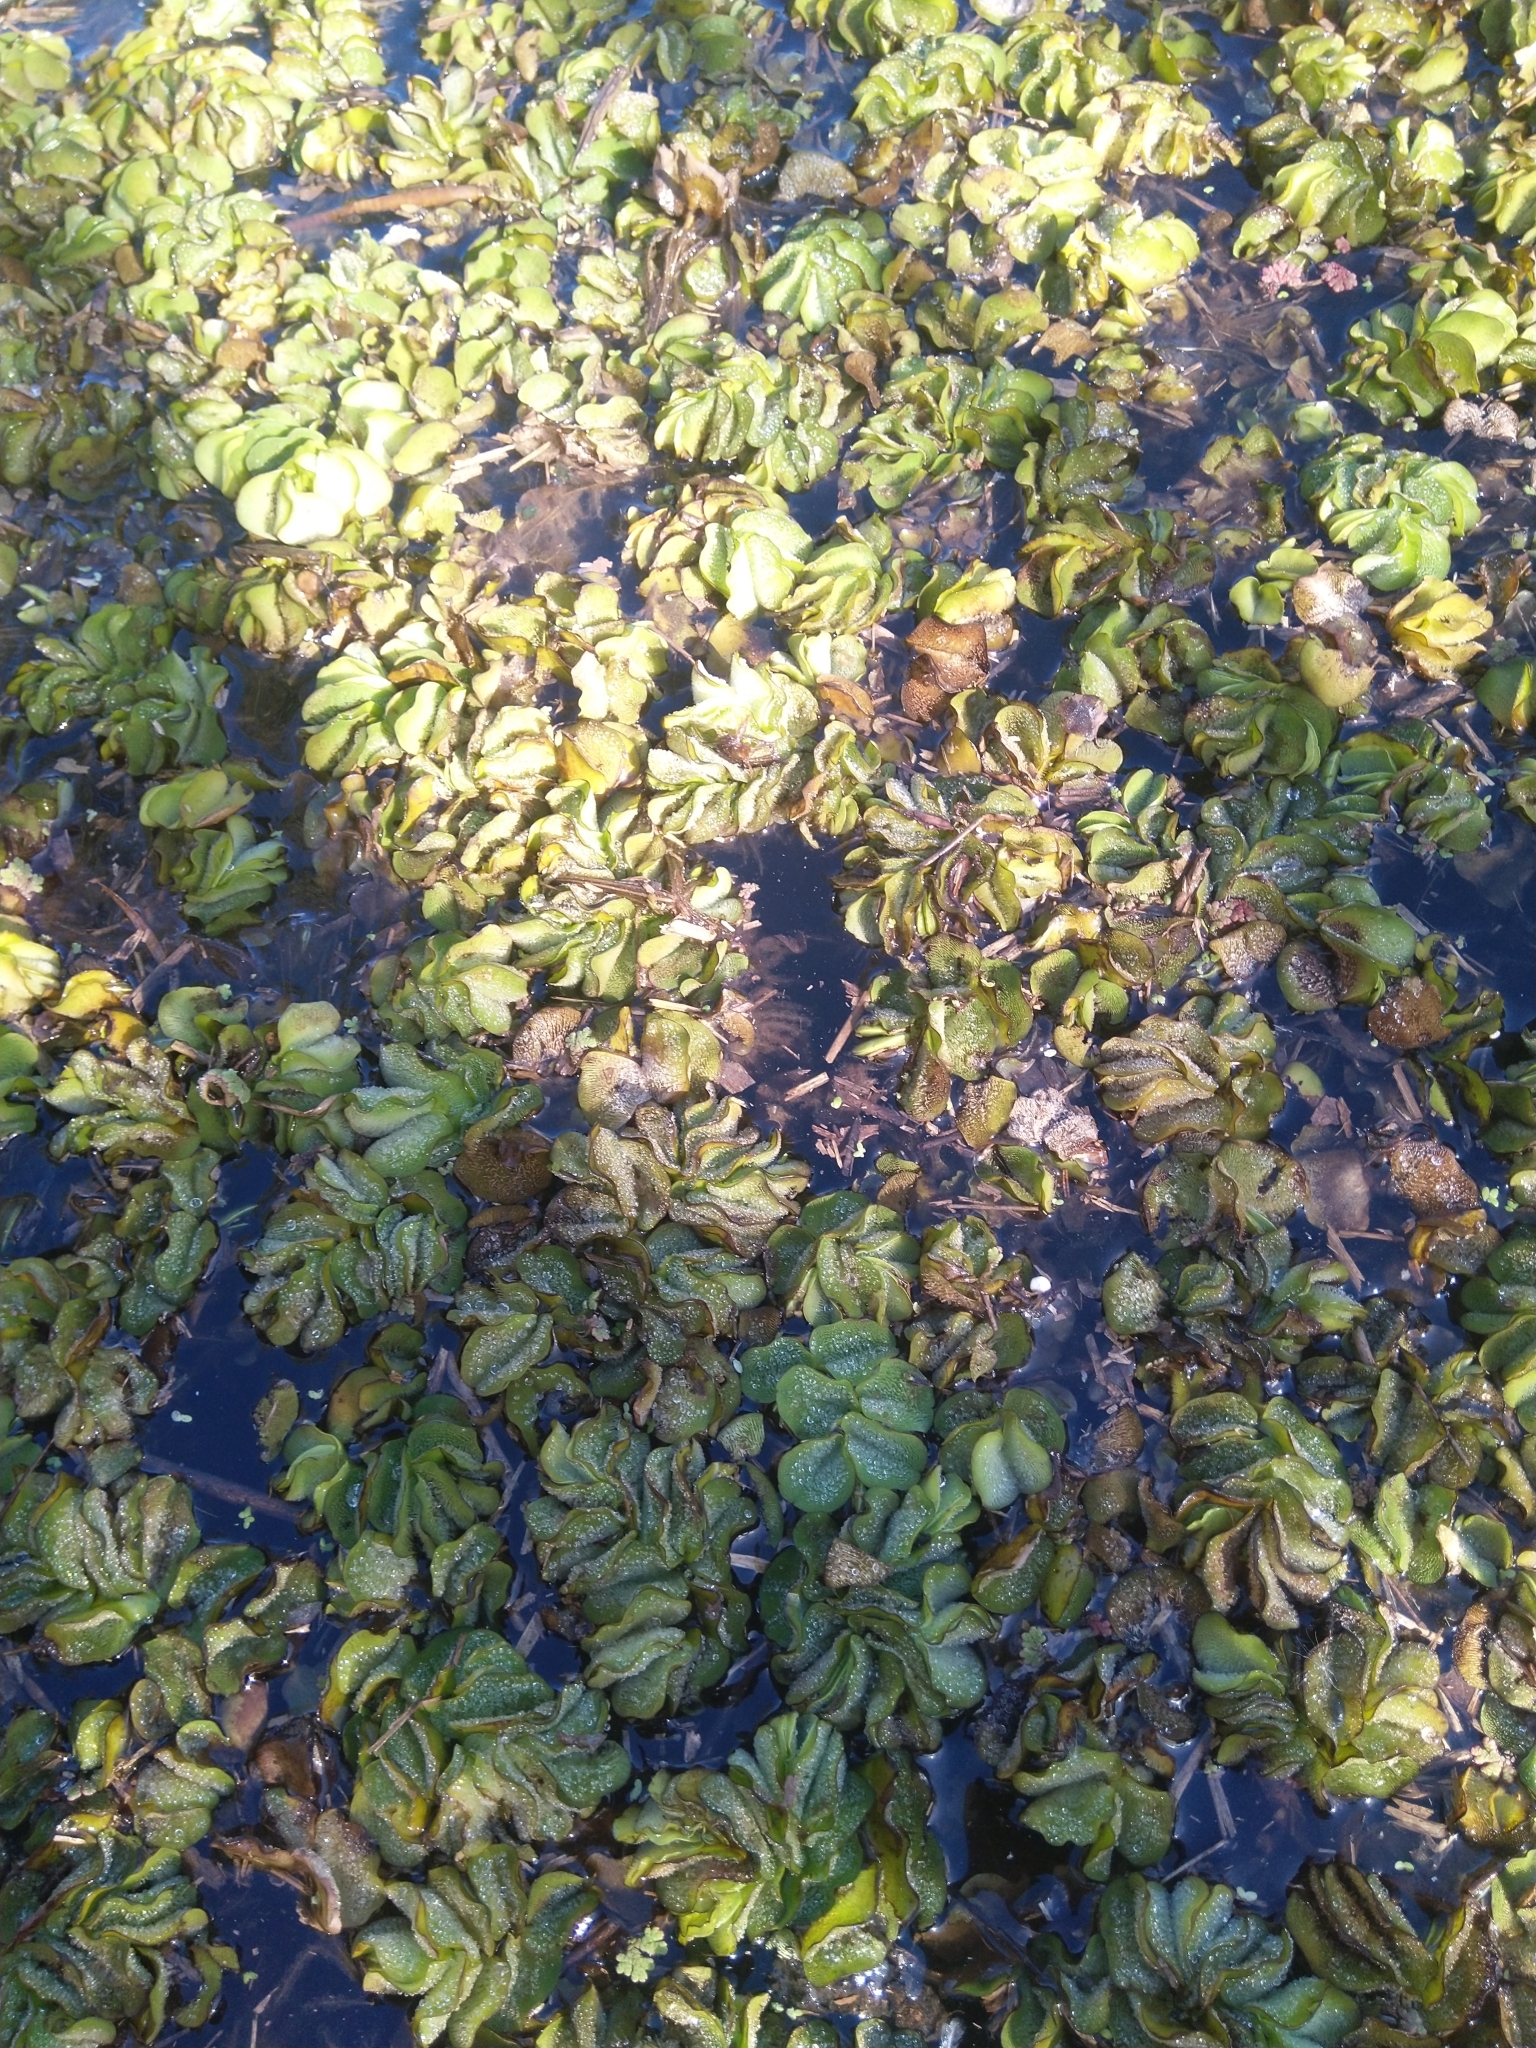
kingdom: Plantae
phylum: Tracheophyta
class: Polypodiopsida
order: Salviniales
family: Salviniaceae
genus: Salvinia
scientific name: Salvinia molesta
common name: Kariba weed
